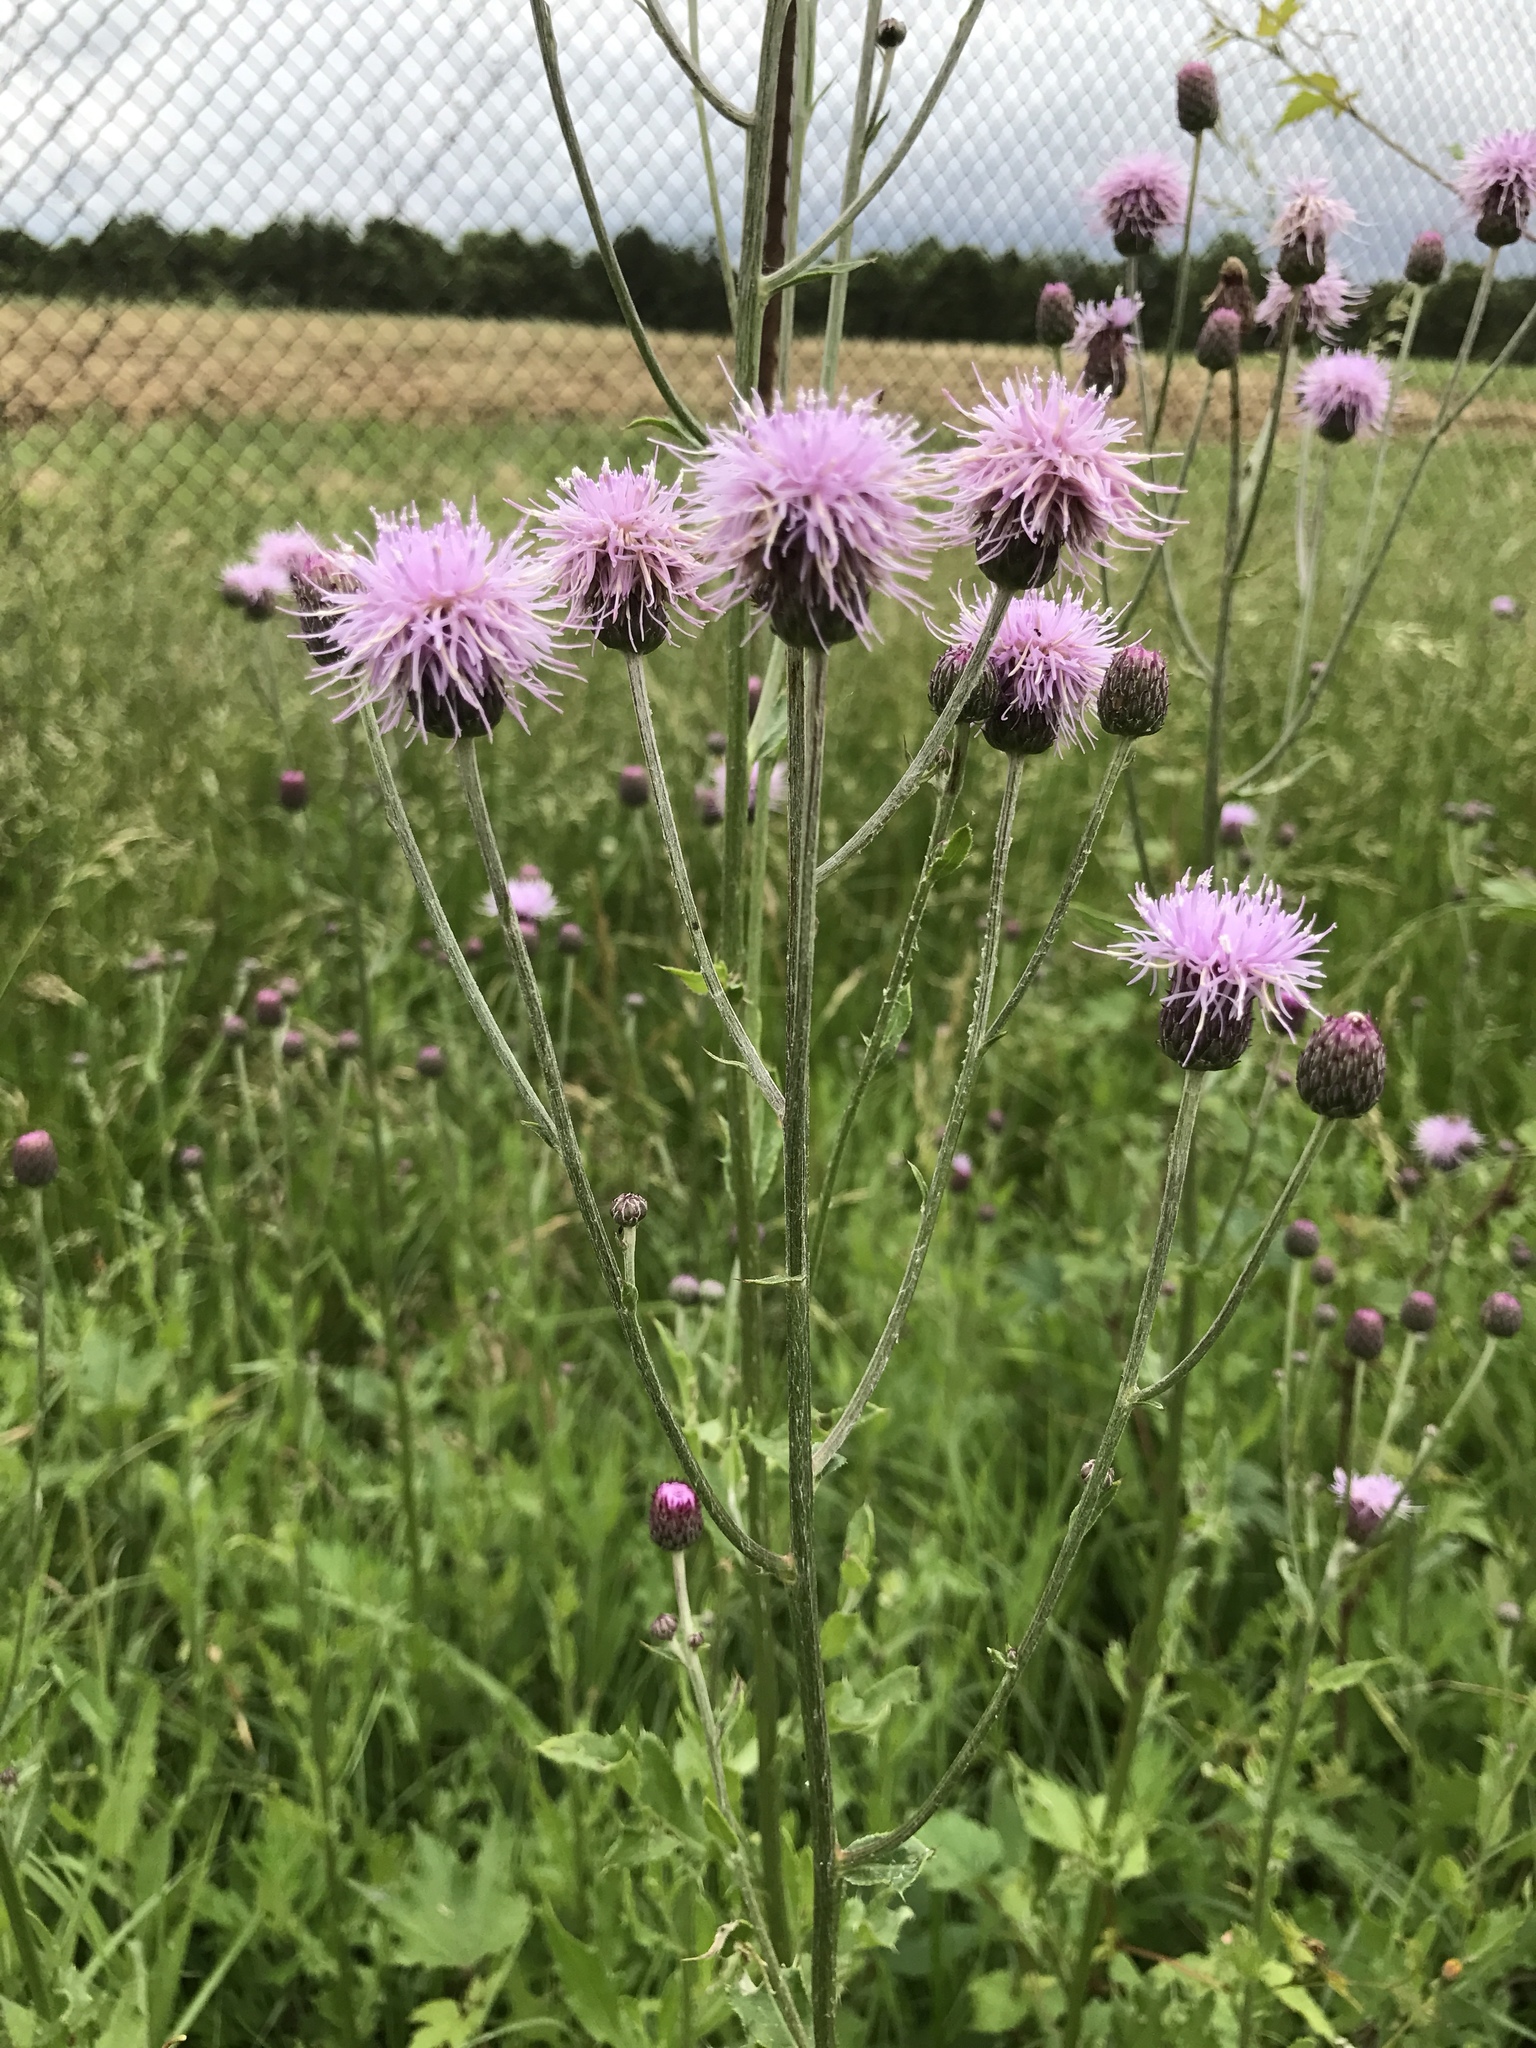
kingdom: Plantae
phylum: Tracheophyta
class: Magnoliopsida
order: Asterales
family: Asteraceae
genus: Cirsium
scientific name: Cirsium arvense
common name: Creeping thistle
